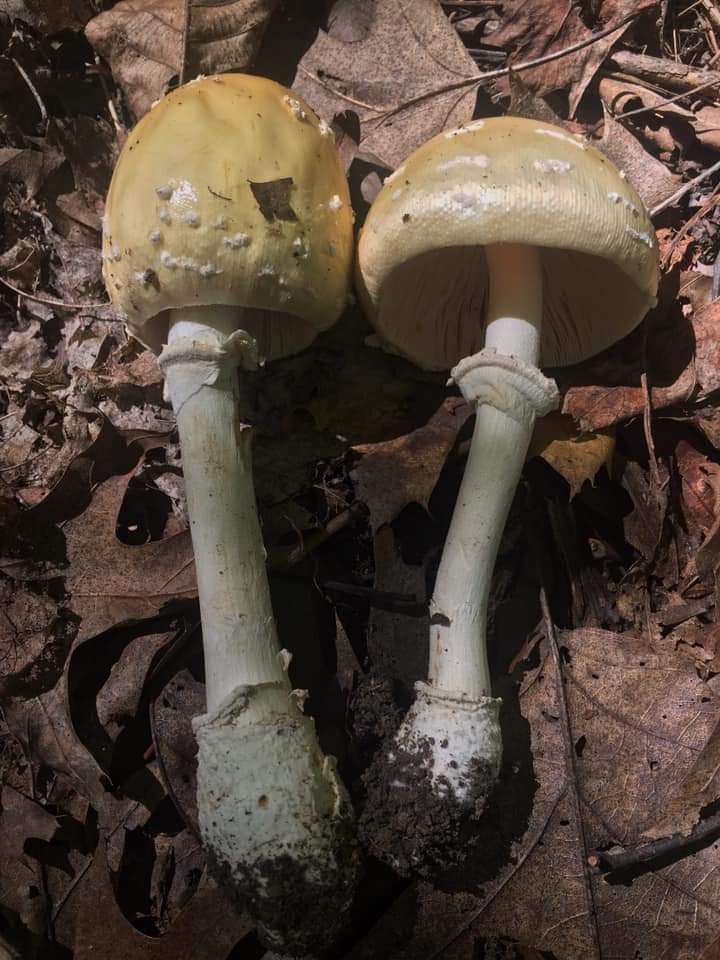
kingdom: Fungi
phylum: Basidiomycota
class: Agaricomycetes
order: Agaricales
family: Amanitaceae
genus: Amanita
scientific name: Amanita velatipes
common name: Great funnel-veil amanita
